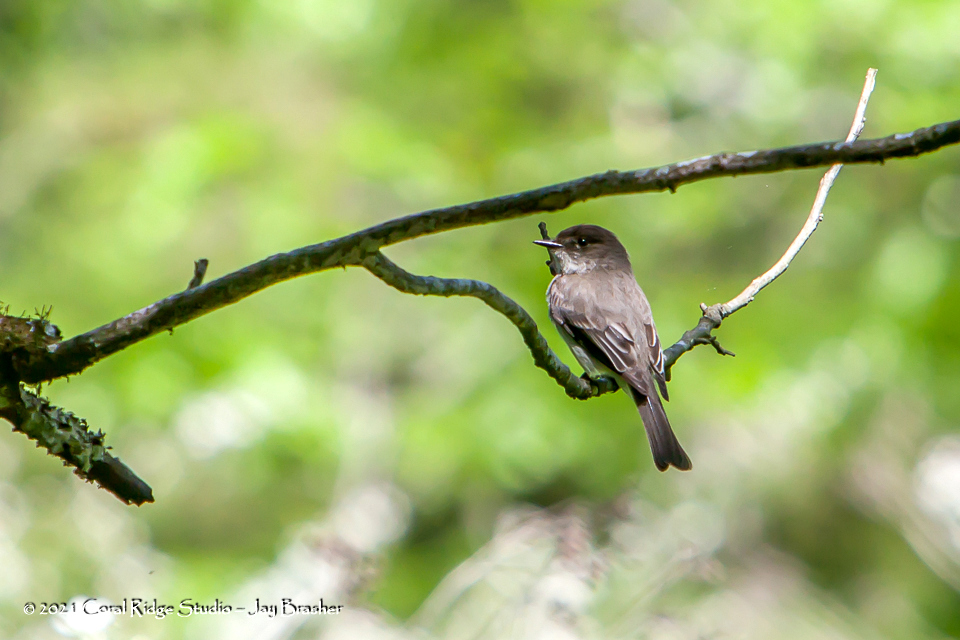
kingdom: Animalia
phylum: Chordata
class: Aves
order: Passeriformes
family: Tyrannidae
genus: Sayornis
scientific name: Sayornis phoebe
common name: Eastern phoebe
